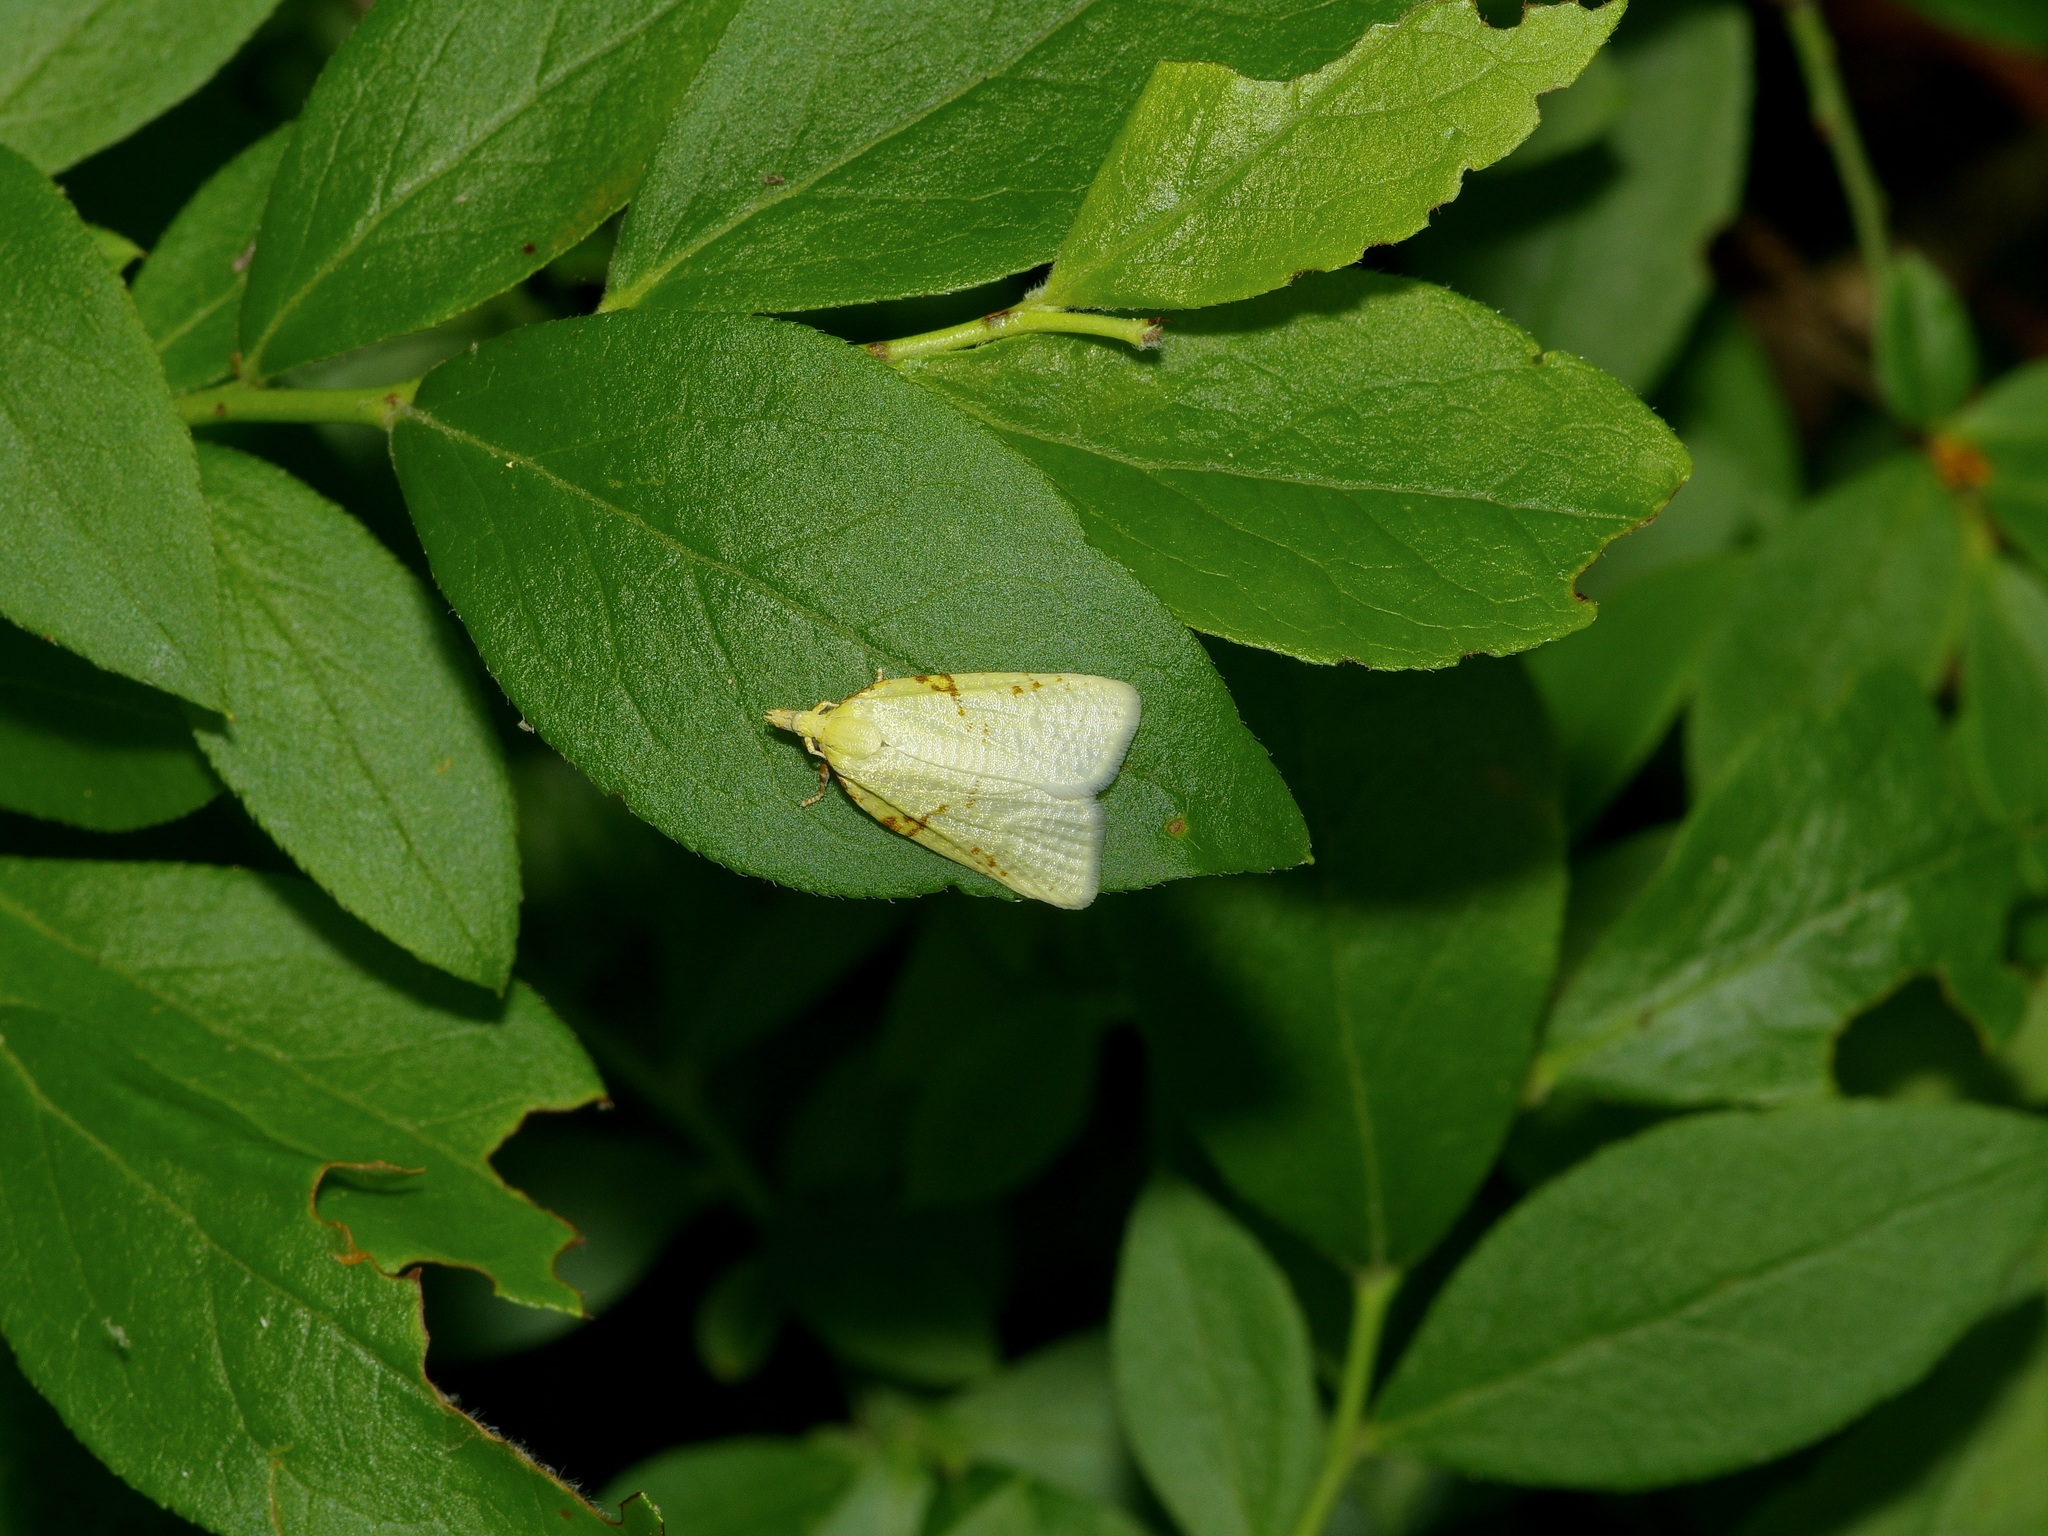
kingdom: Animalia
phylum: Arthropoda
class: Insecta
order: Lepidoptera
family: Tortricidae
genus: Cenopis
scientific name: Cenopis pettitana
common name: Maple-basswood leafroller moth
